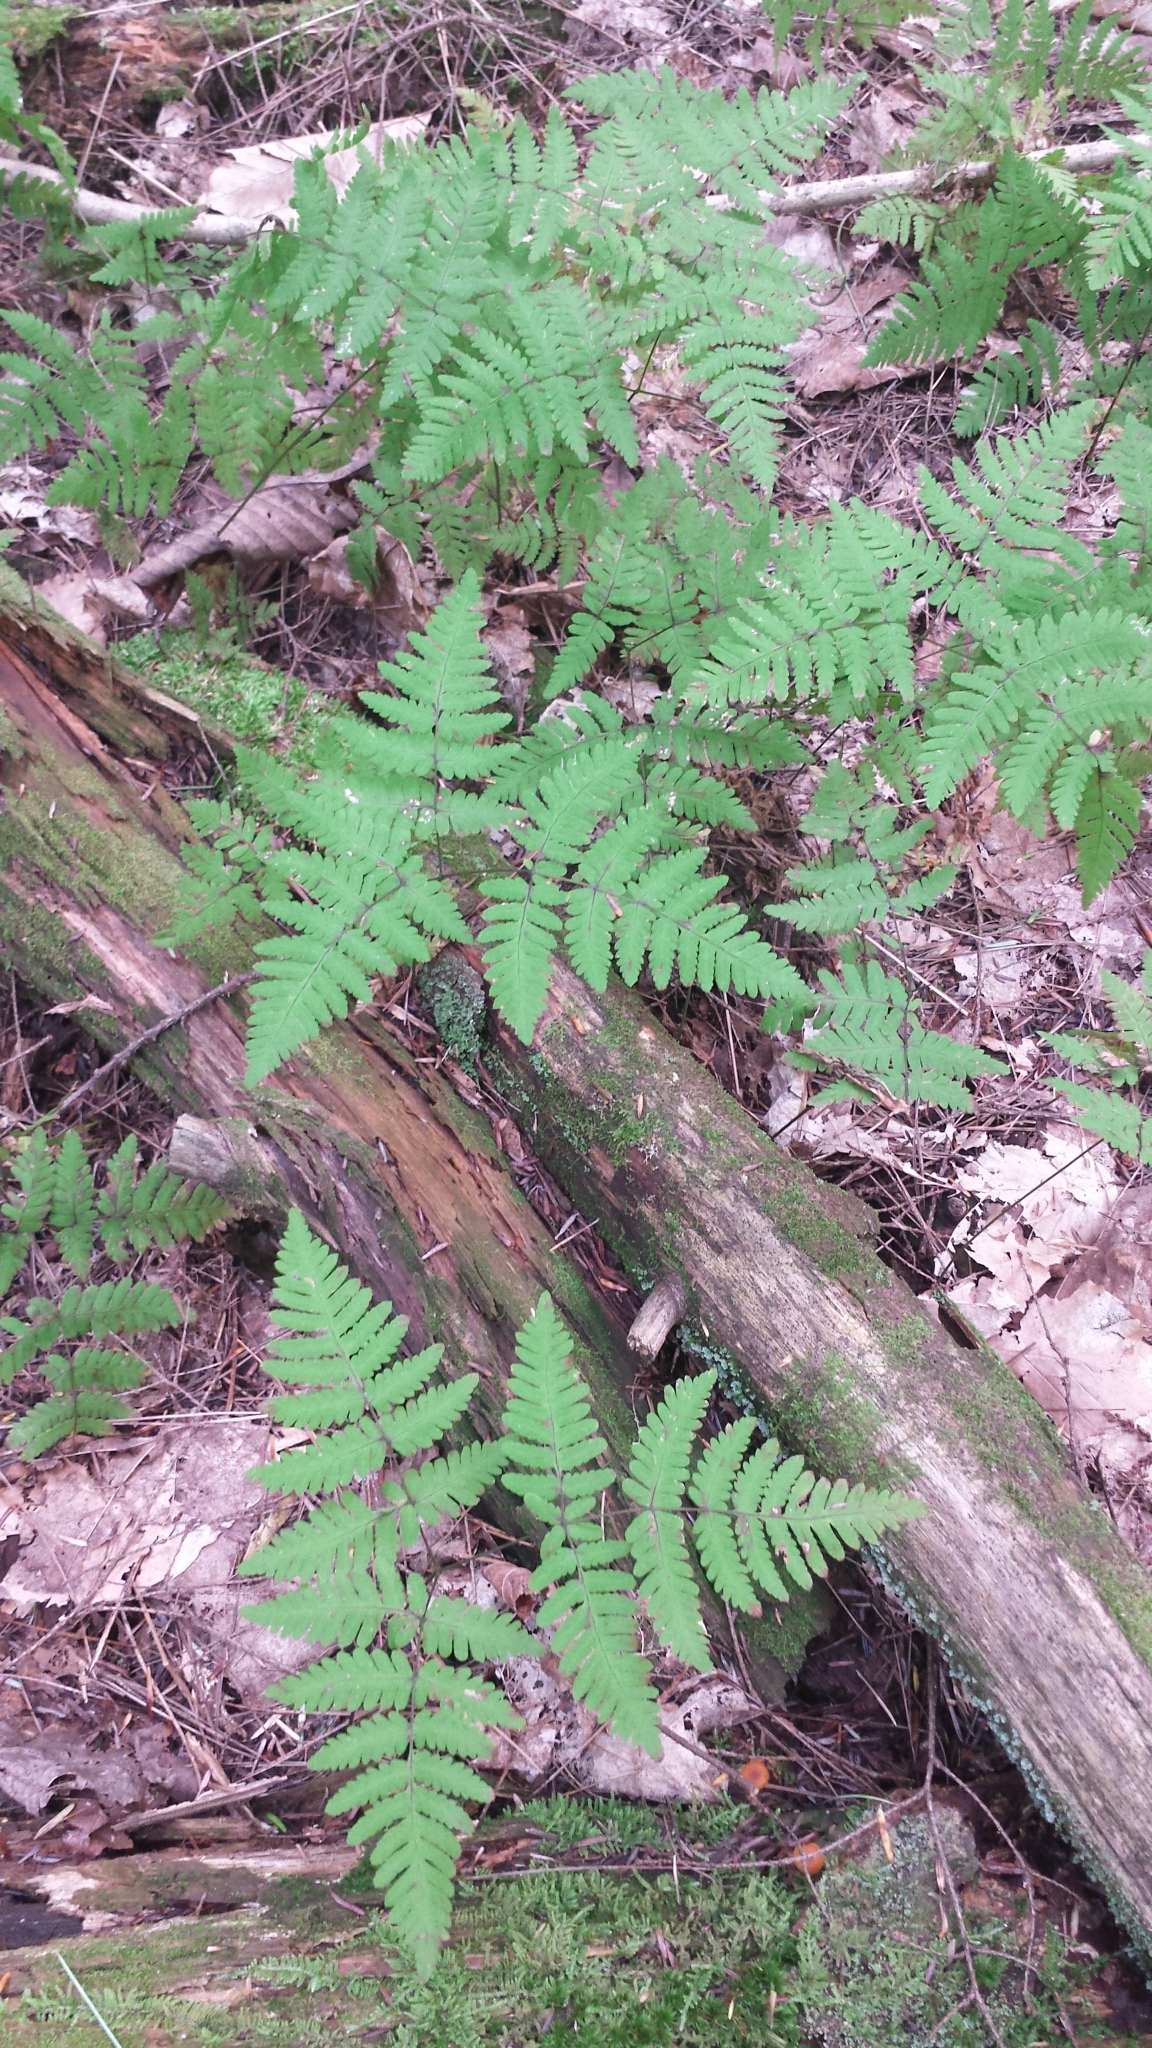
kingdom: Plantae
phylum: Tracheophyta
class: Polypodiopsida
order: Polypodiales
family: Cystopteridaceae
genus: Gymnocarpium
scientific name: Gymnocarpium dryopteris
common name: Oak fern
